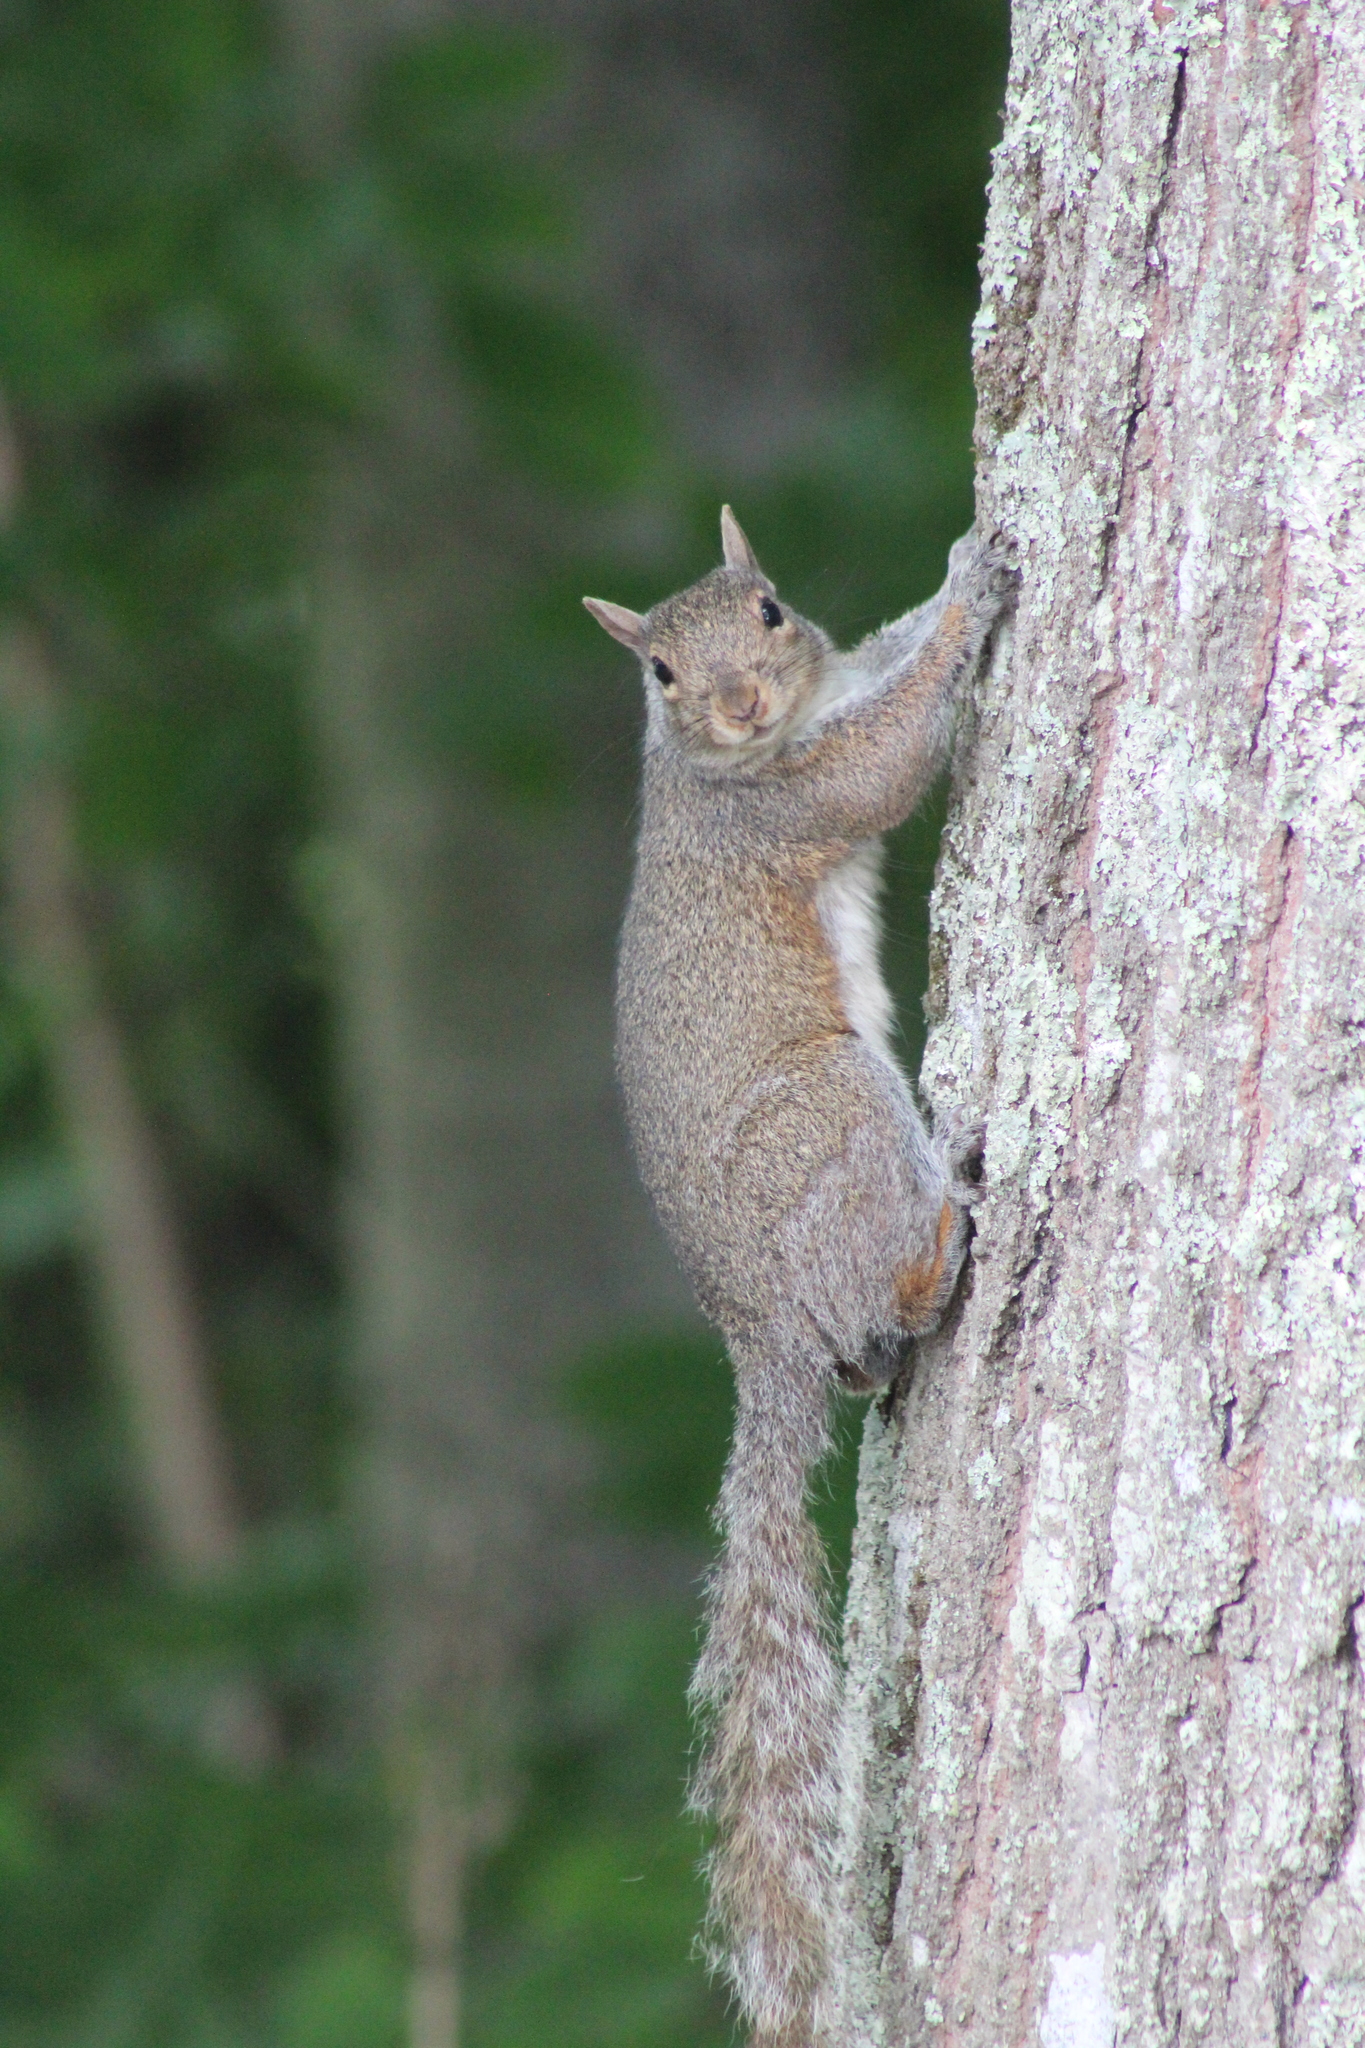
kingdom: Animalia
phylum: Chordata
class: Mammalia
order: Rodentia
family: Sciuridae
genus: Sciurus
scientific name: Sciurus carolinensis
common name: Eastern gray squirrel
